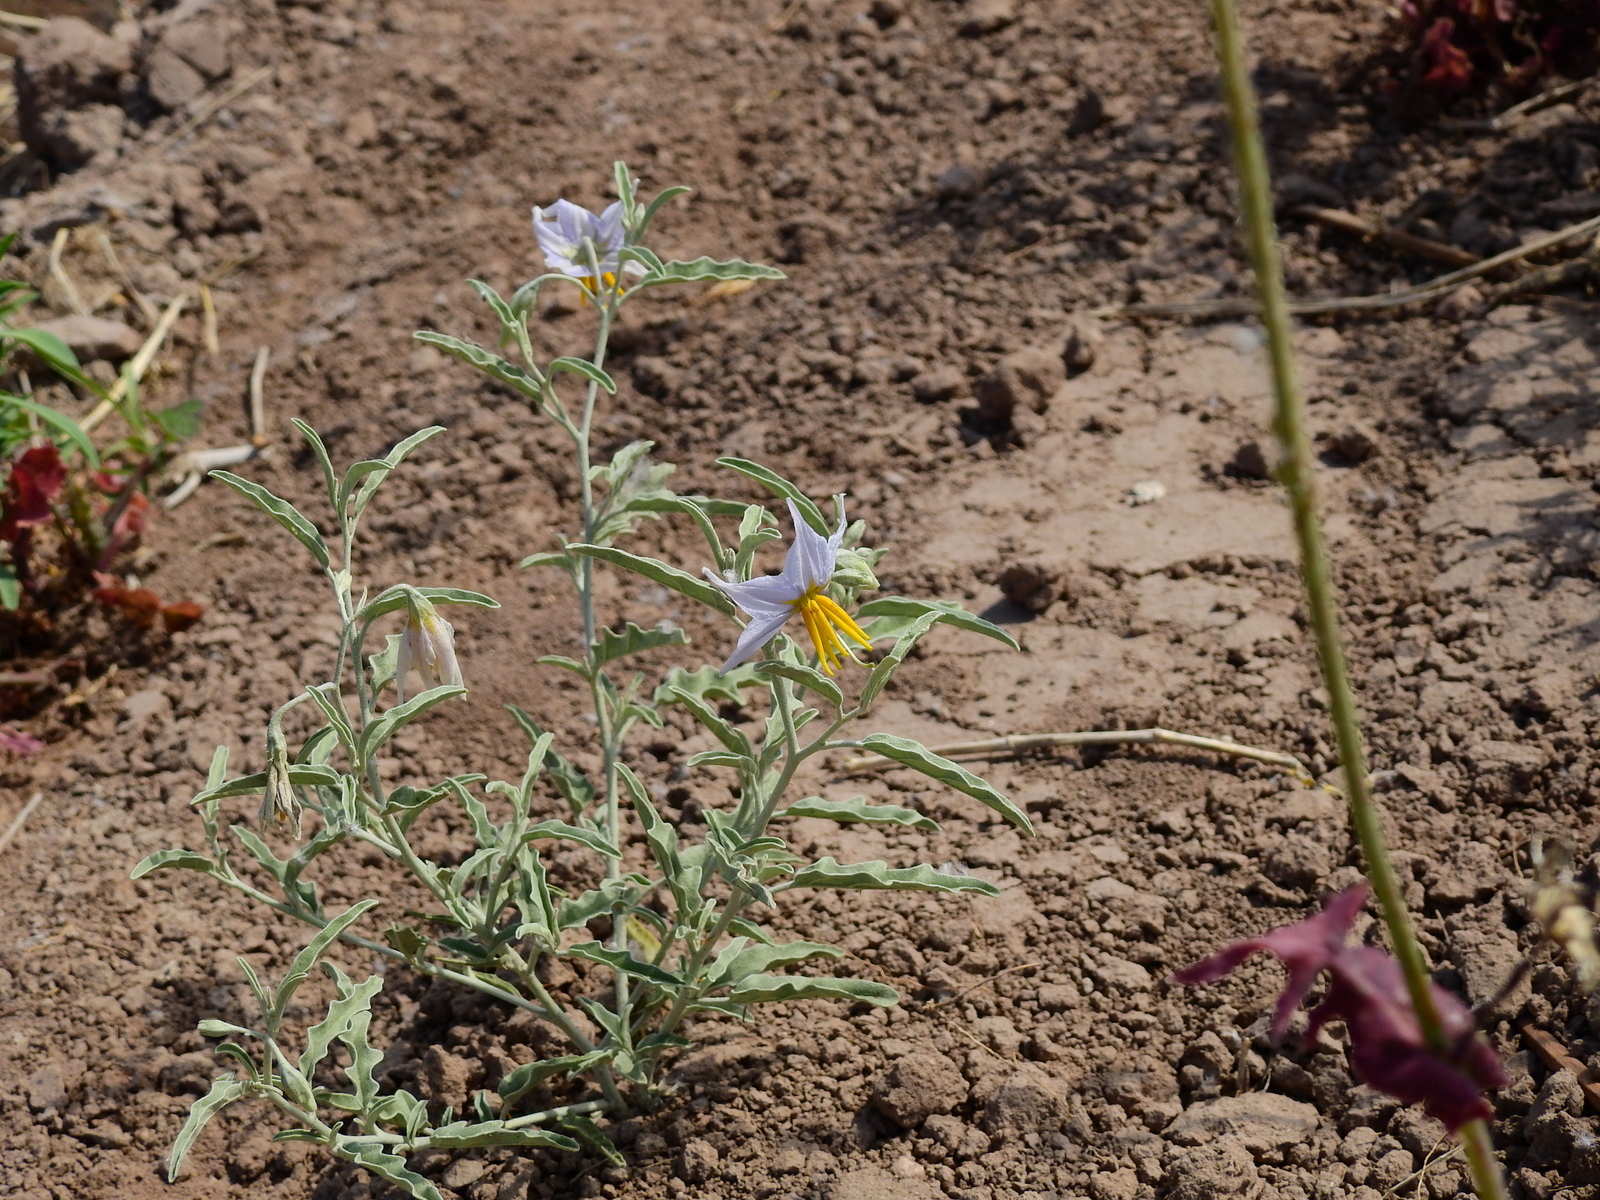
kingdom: Plantae
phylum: Tracheophyta
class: Magnoliopsida
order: Solanales
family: Solanaceae
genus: Solanum
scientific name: Solanum elaeagnifolium
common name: Silverleaf nightshade
